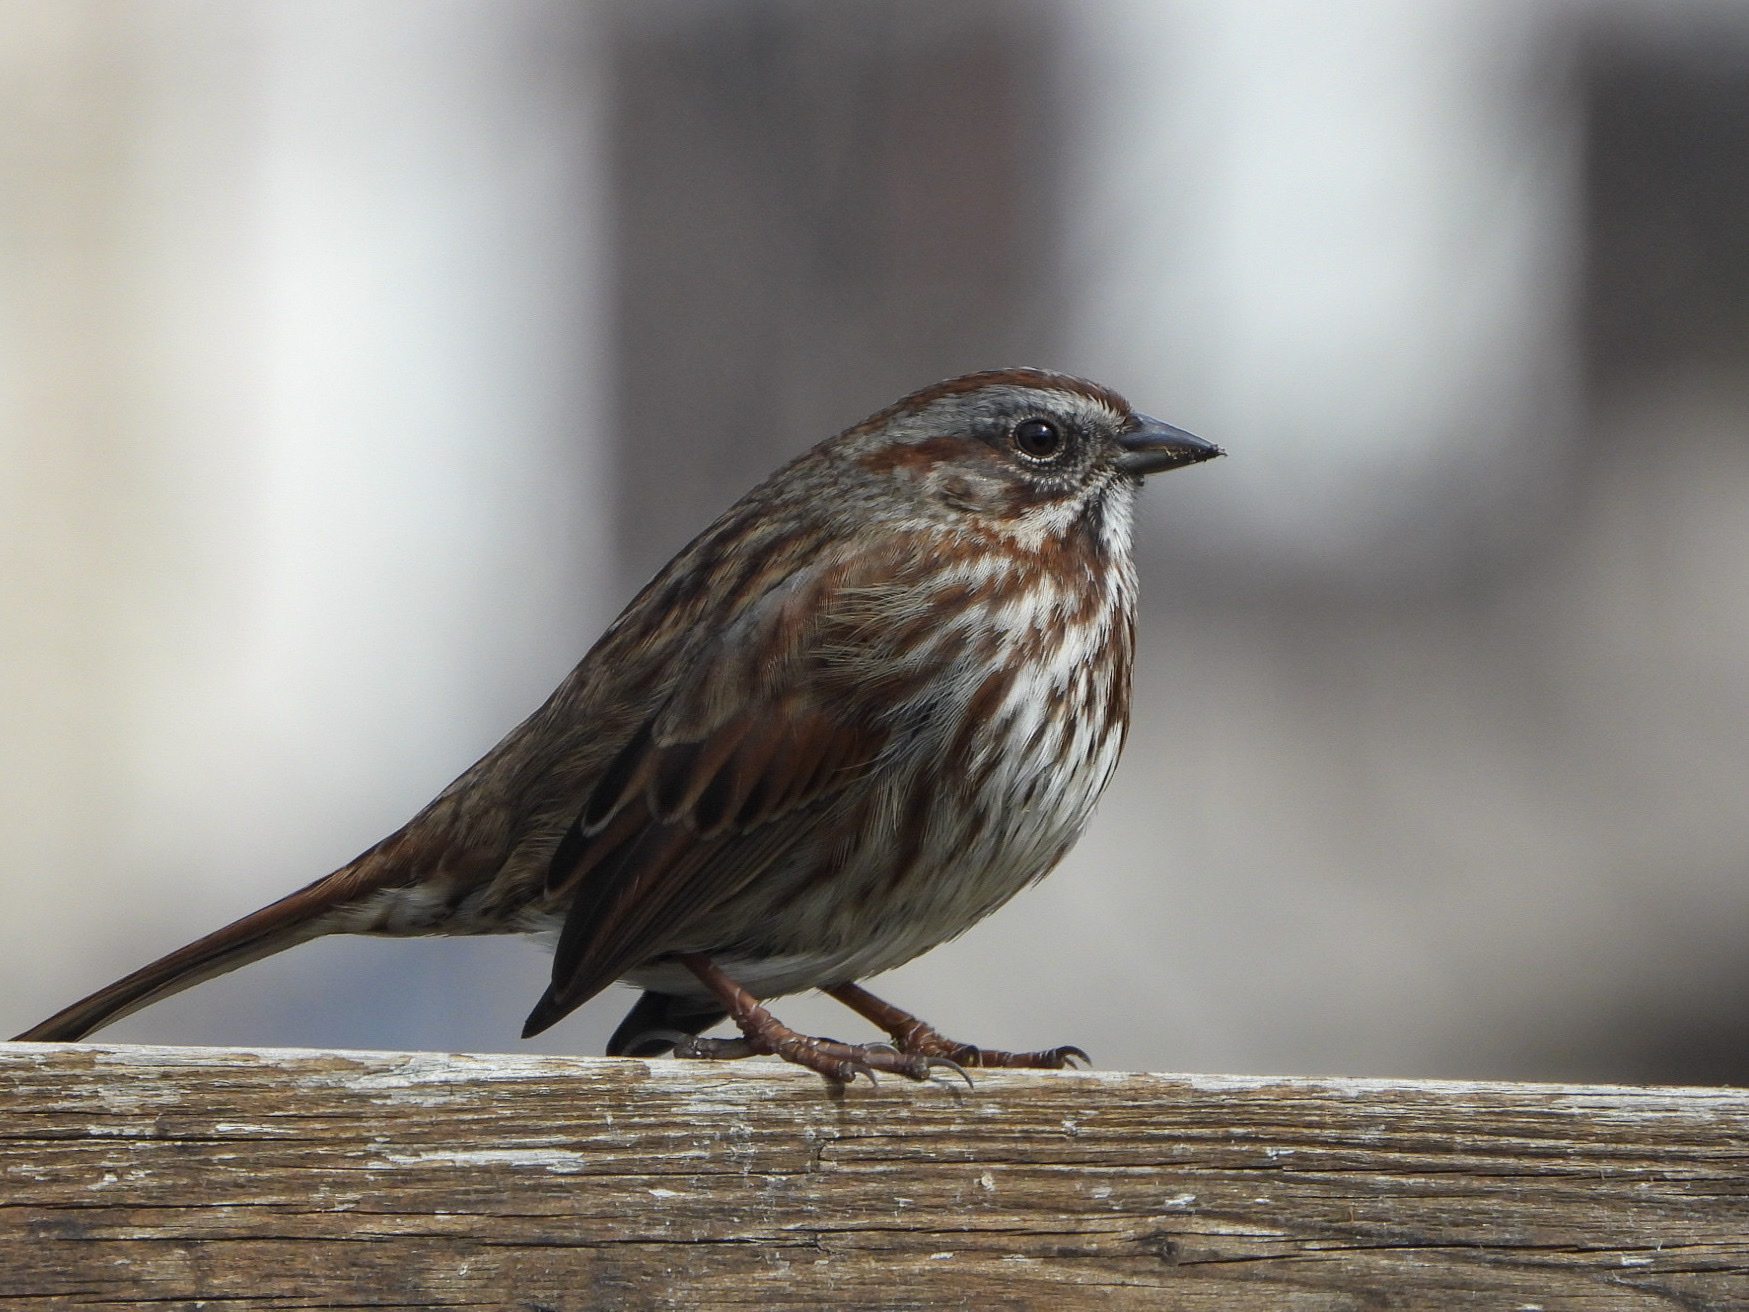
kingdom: Animalia
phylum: Chordata
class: Aves
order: Passeriformes
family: Passerellidae
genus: Melospiza
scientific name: Melospiza melodia
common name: Song sparrow
